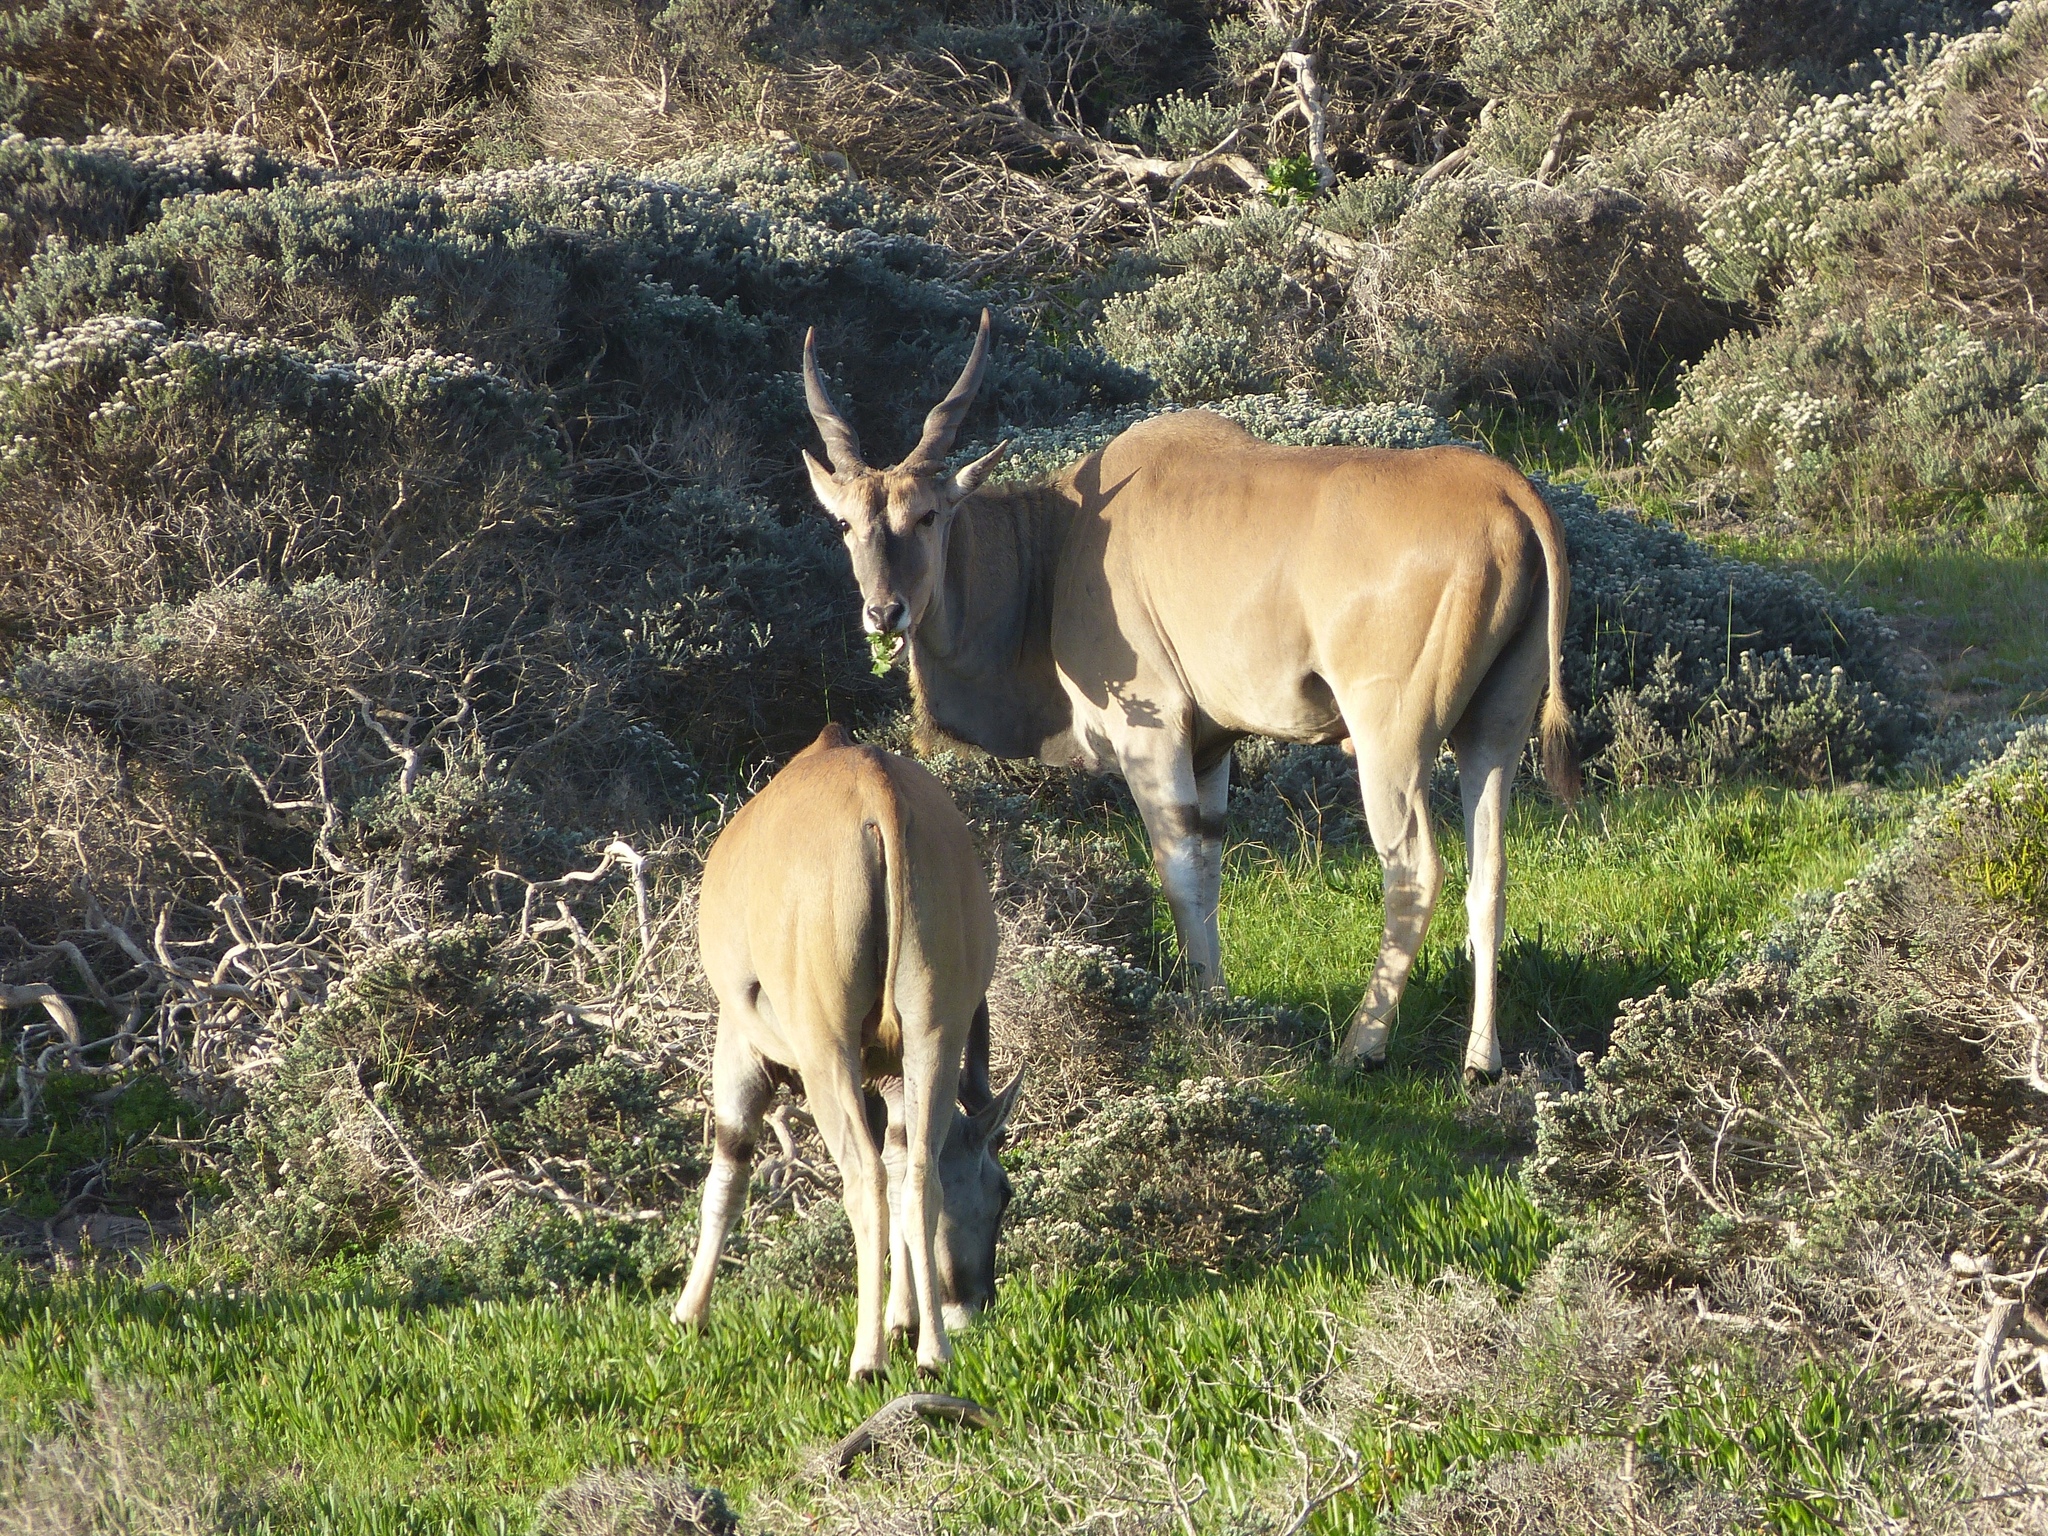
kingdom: Animalia
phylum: Chordata
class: Mammalia
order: Artiodactyla
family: Bovidae
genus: Taurotragus
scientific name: Taurotragus oryx
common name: Common eland
